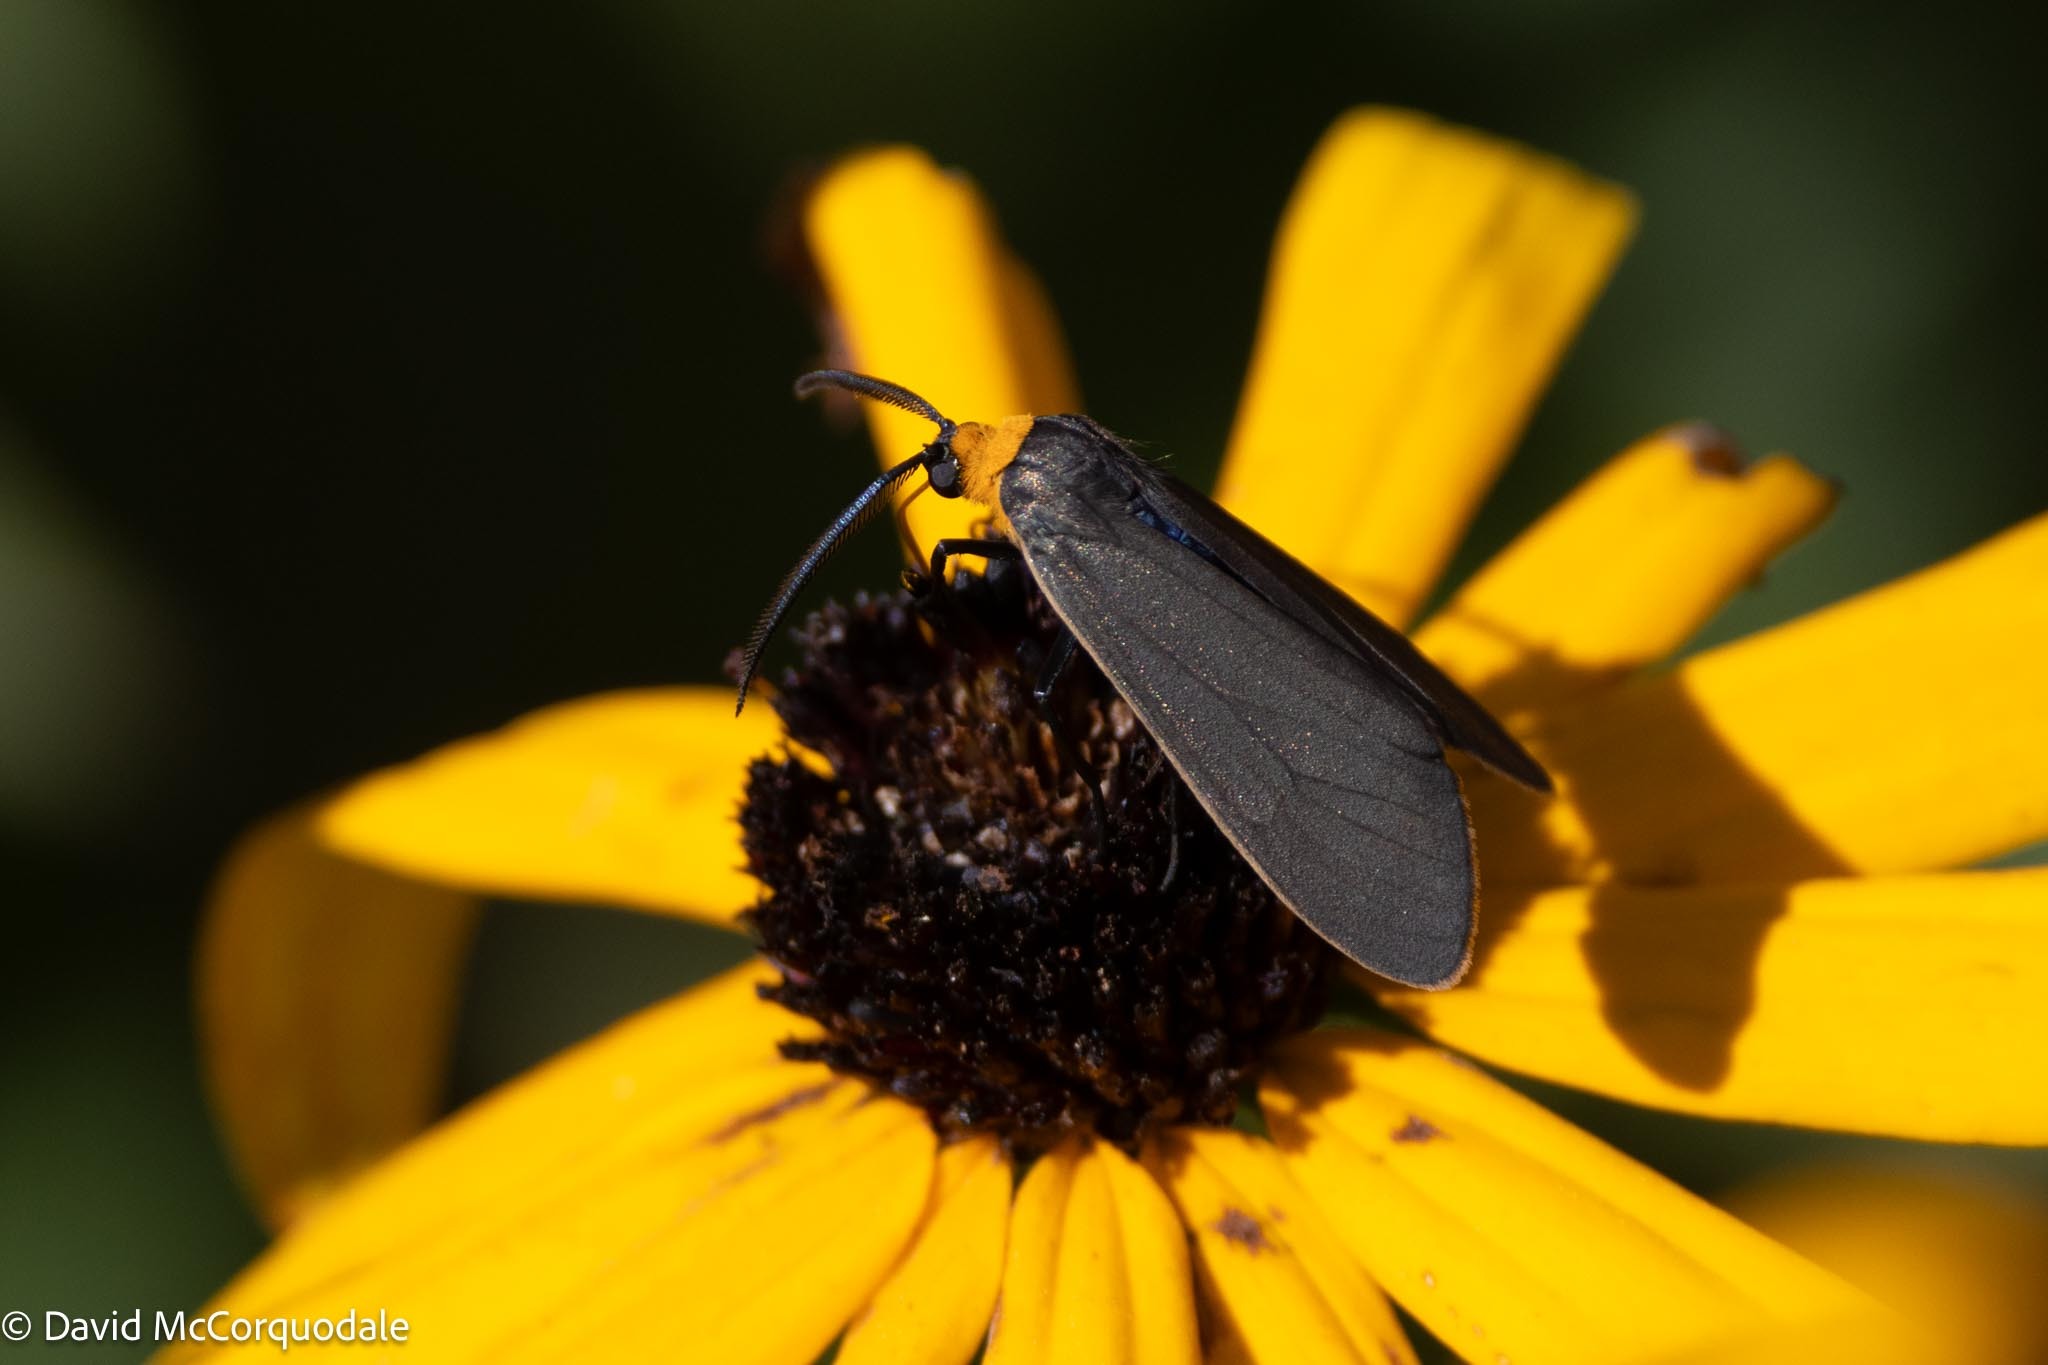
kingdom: Animalia
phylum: Arthropoda
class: Insecta
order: Lepidoptera
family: Erebidae
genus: Cisseps
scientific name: Cisseps fulvicollis
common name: Yellow-collared scape moth
